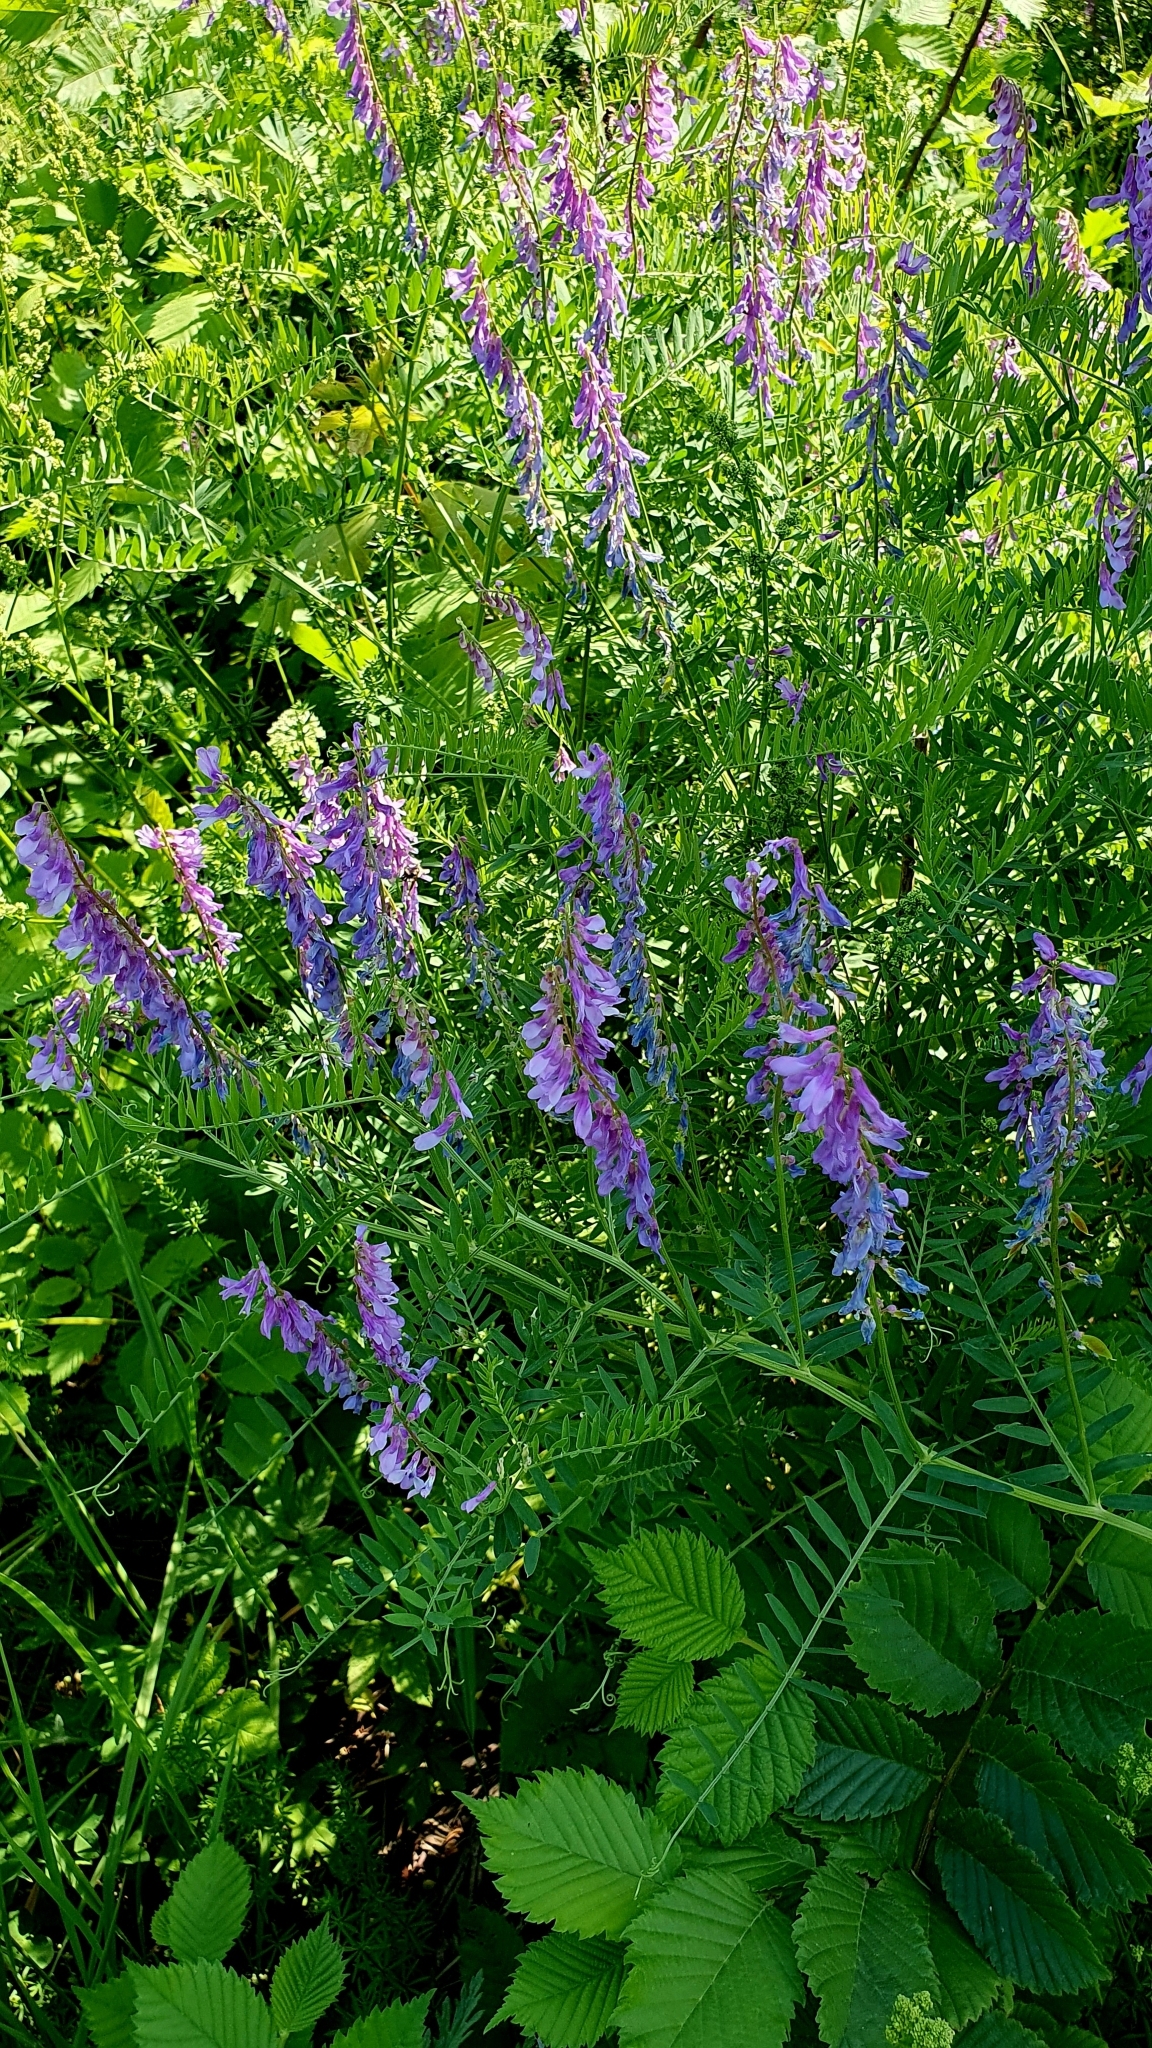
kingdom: Plantae
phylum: Tracheophyta
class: Magnoliopsida
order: Fabales
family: Fabaceae
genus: Vicia
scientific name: Vicia tenuifolia
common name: Fine-leaved vetch
